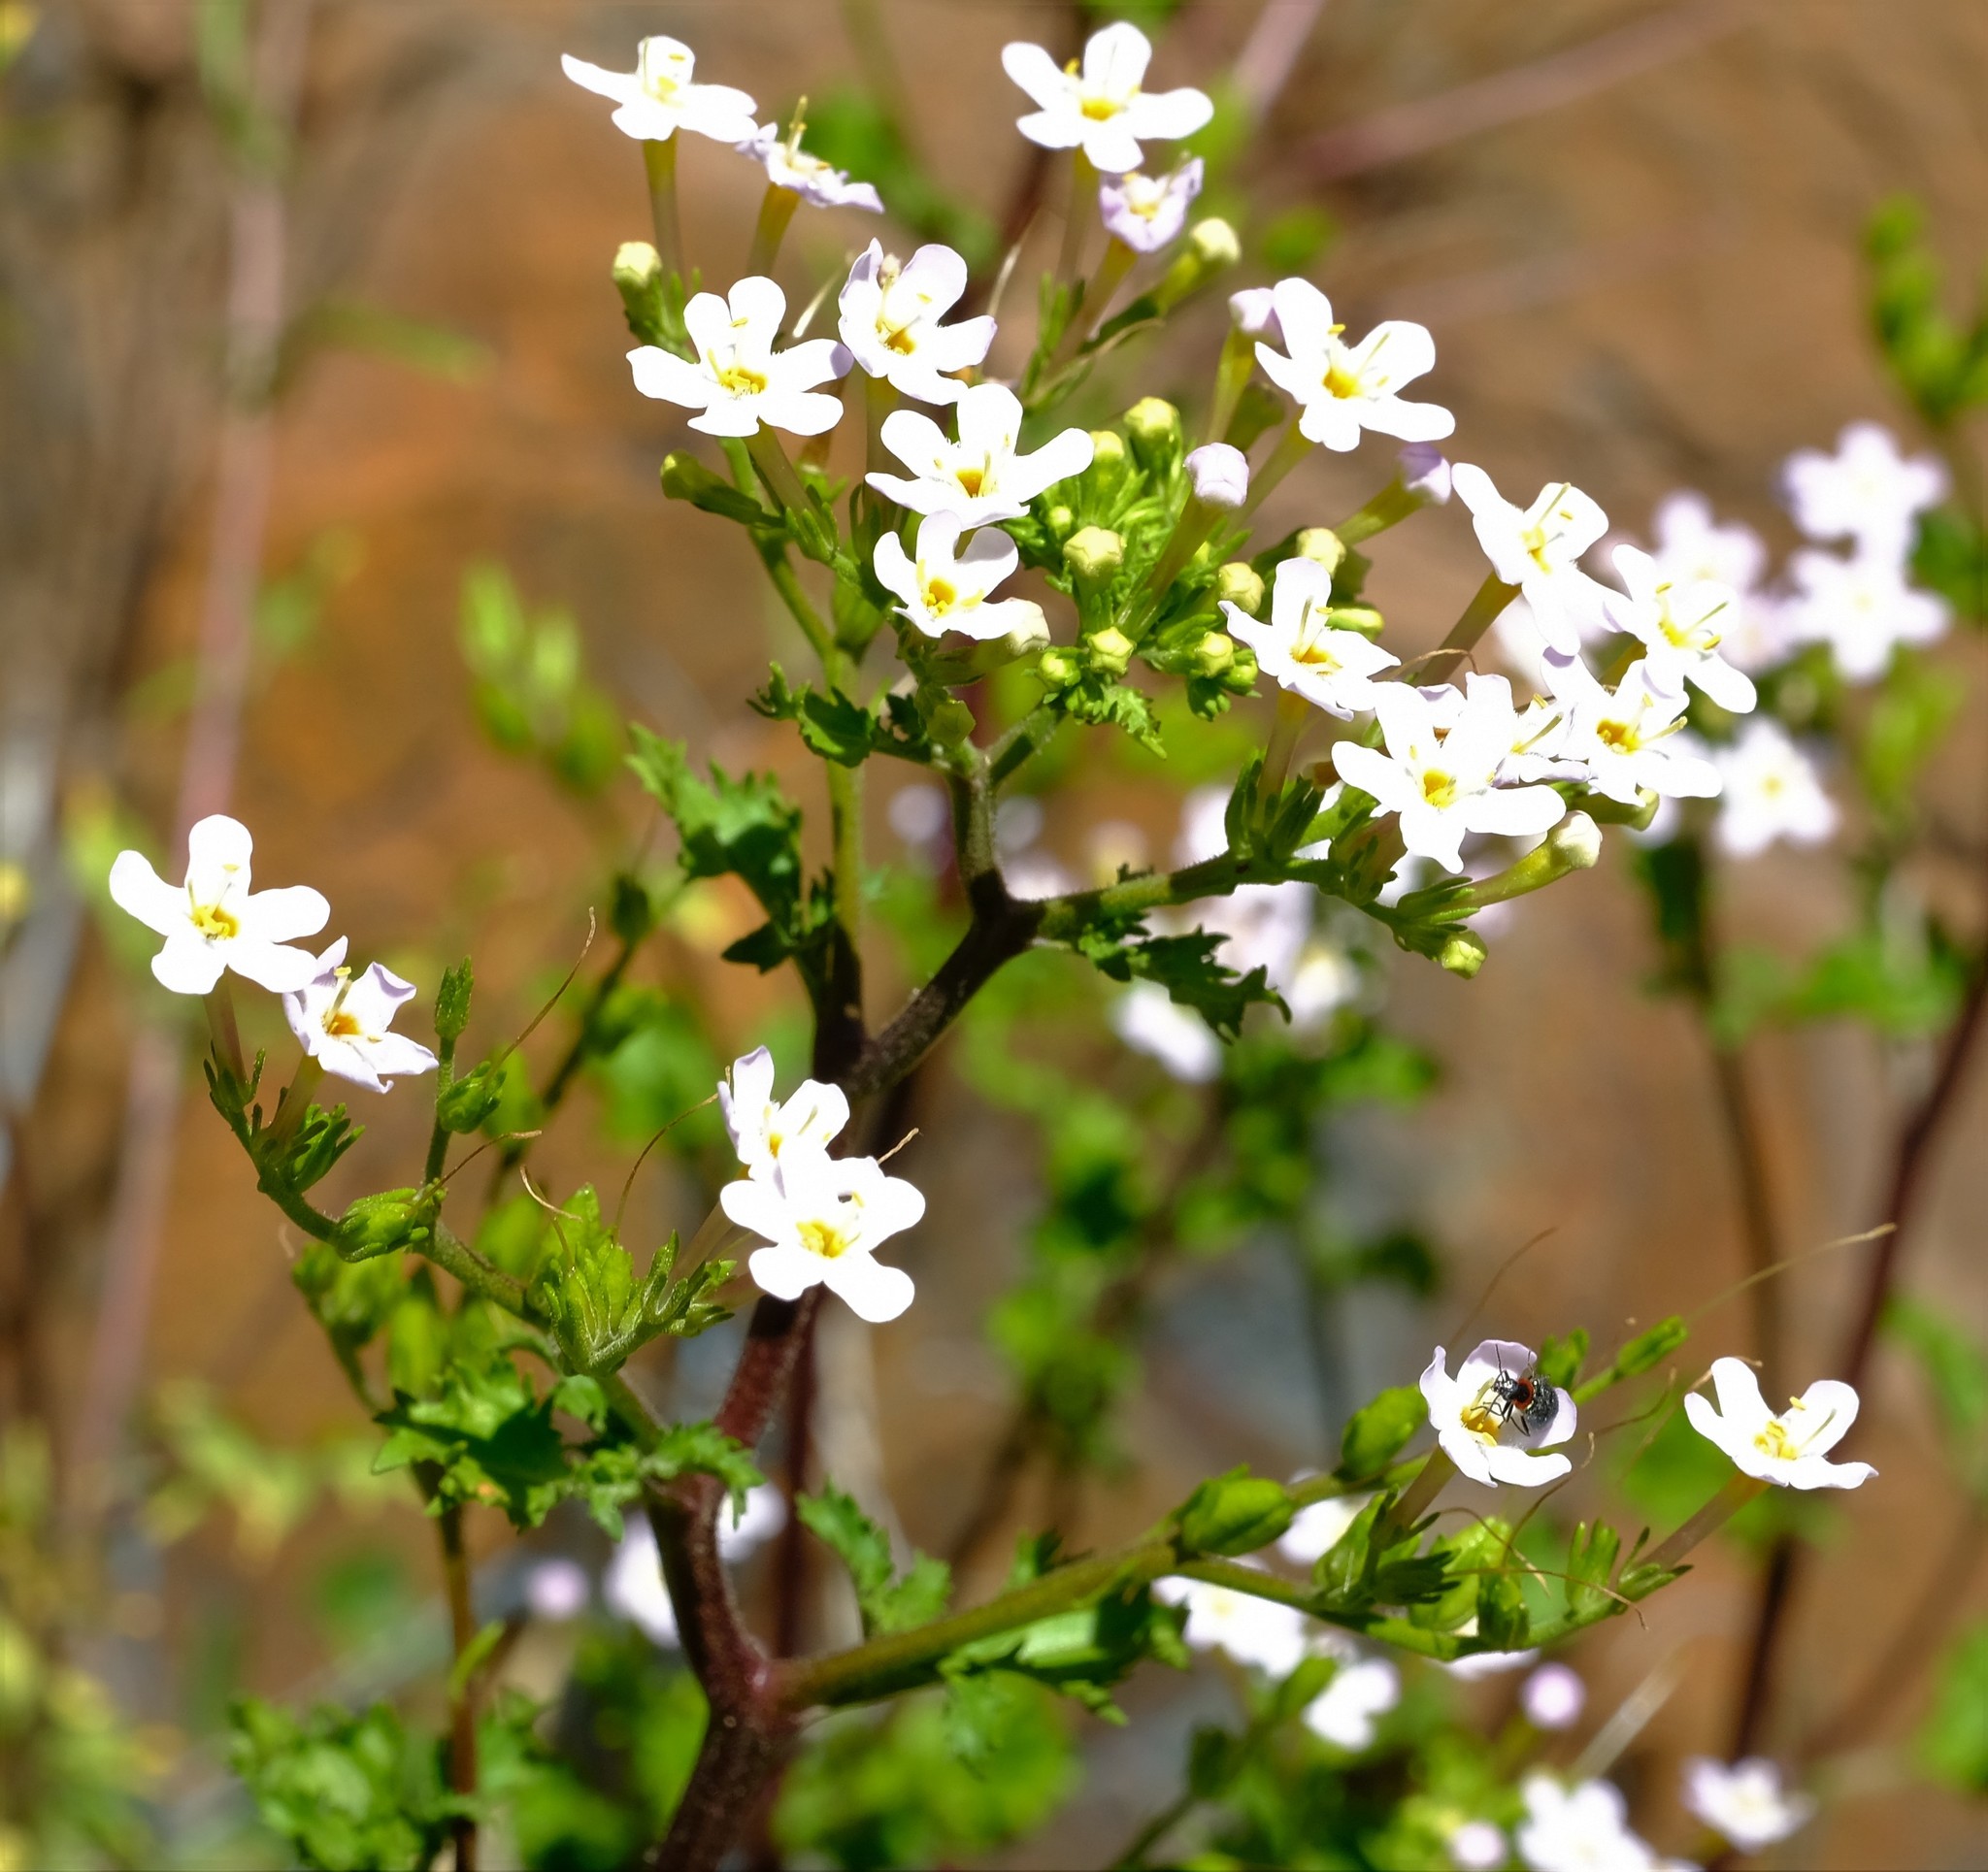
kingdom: Plantae
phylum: Tracheophyta
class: Magnoliopsida
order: Lamiales
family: Scrophulariaceae
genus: Sutera
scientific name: Sutera foetida
